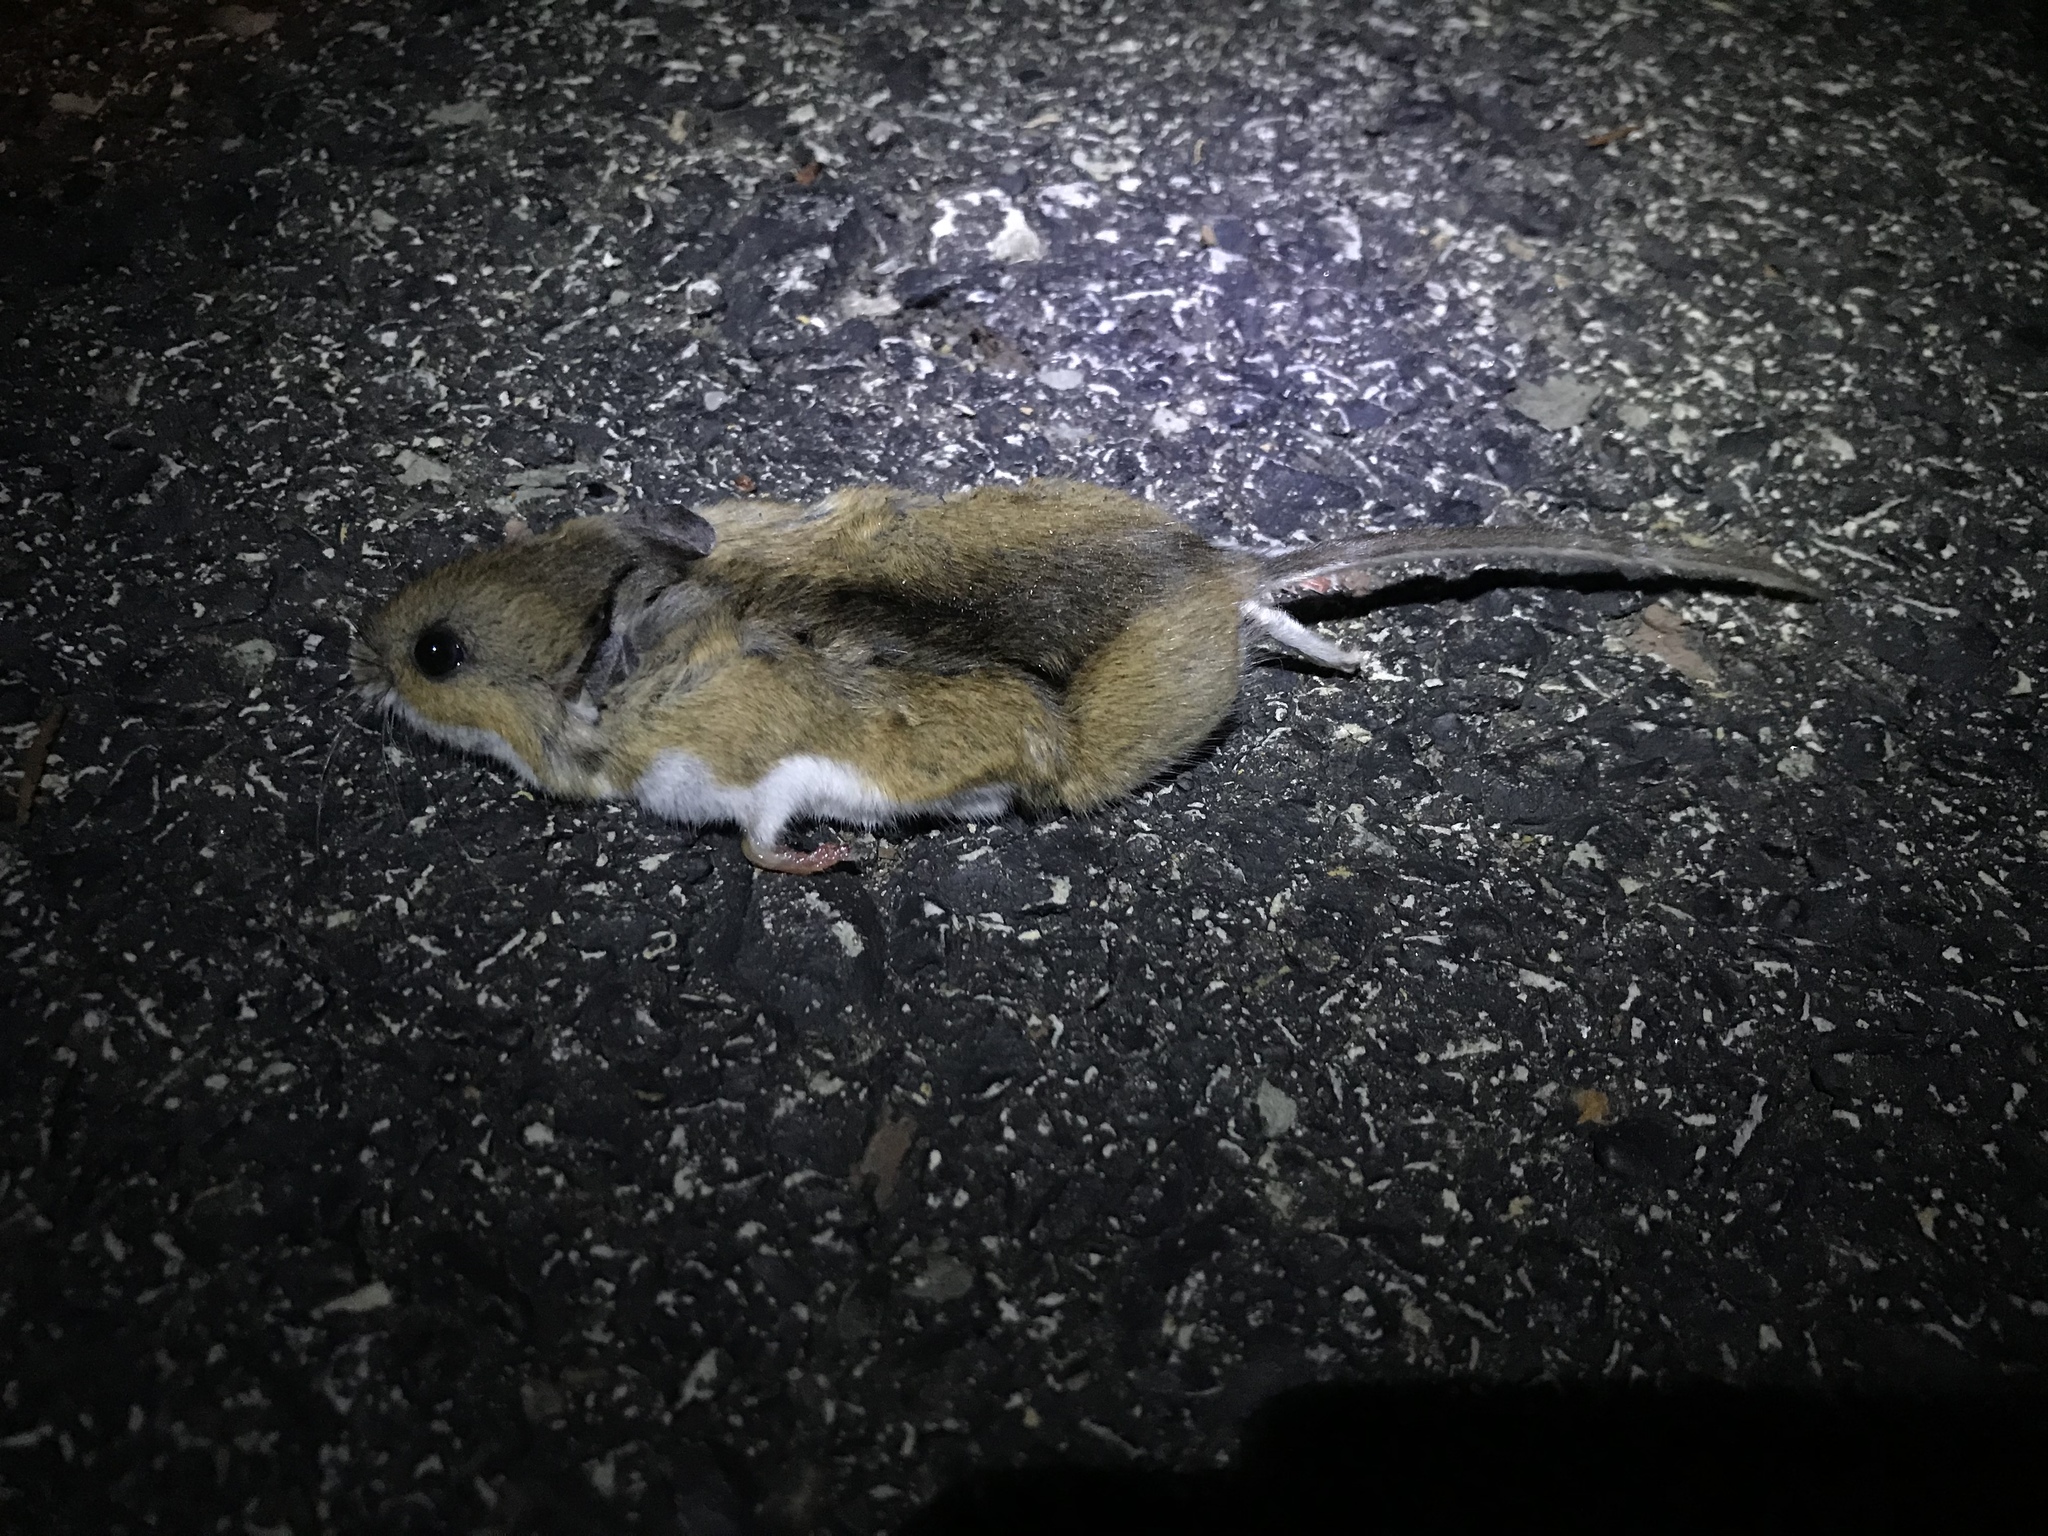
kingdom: Animalia
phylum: Chordata
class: Mammalia
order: Rodentia
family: Cricetidae
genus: Peromyscus
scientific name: Peromyscus leucopus
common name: White-footed deermouse
